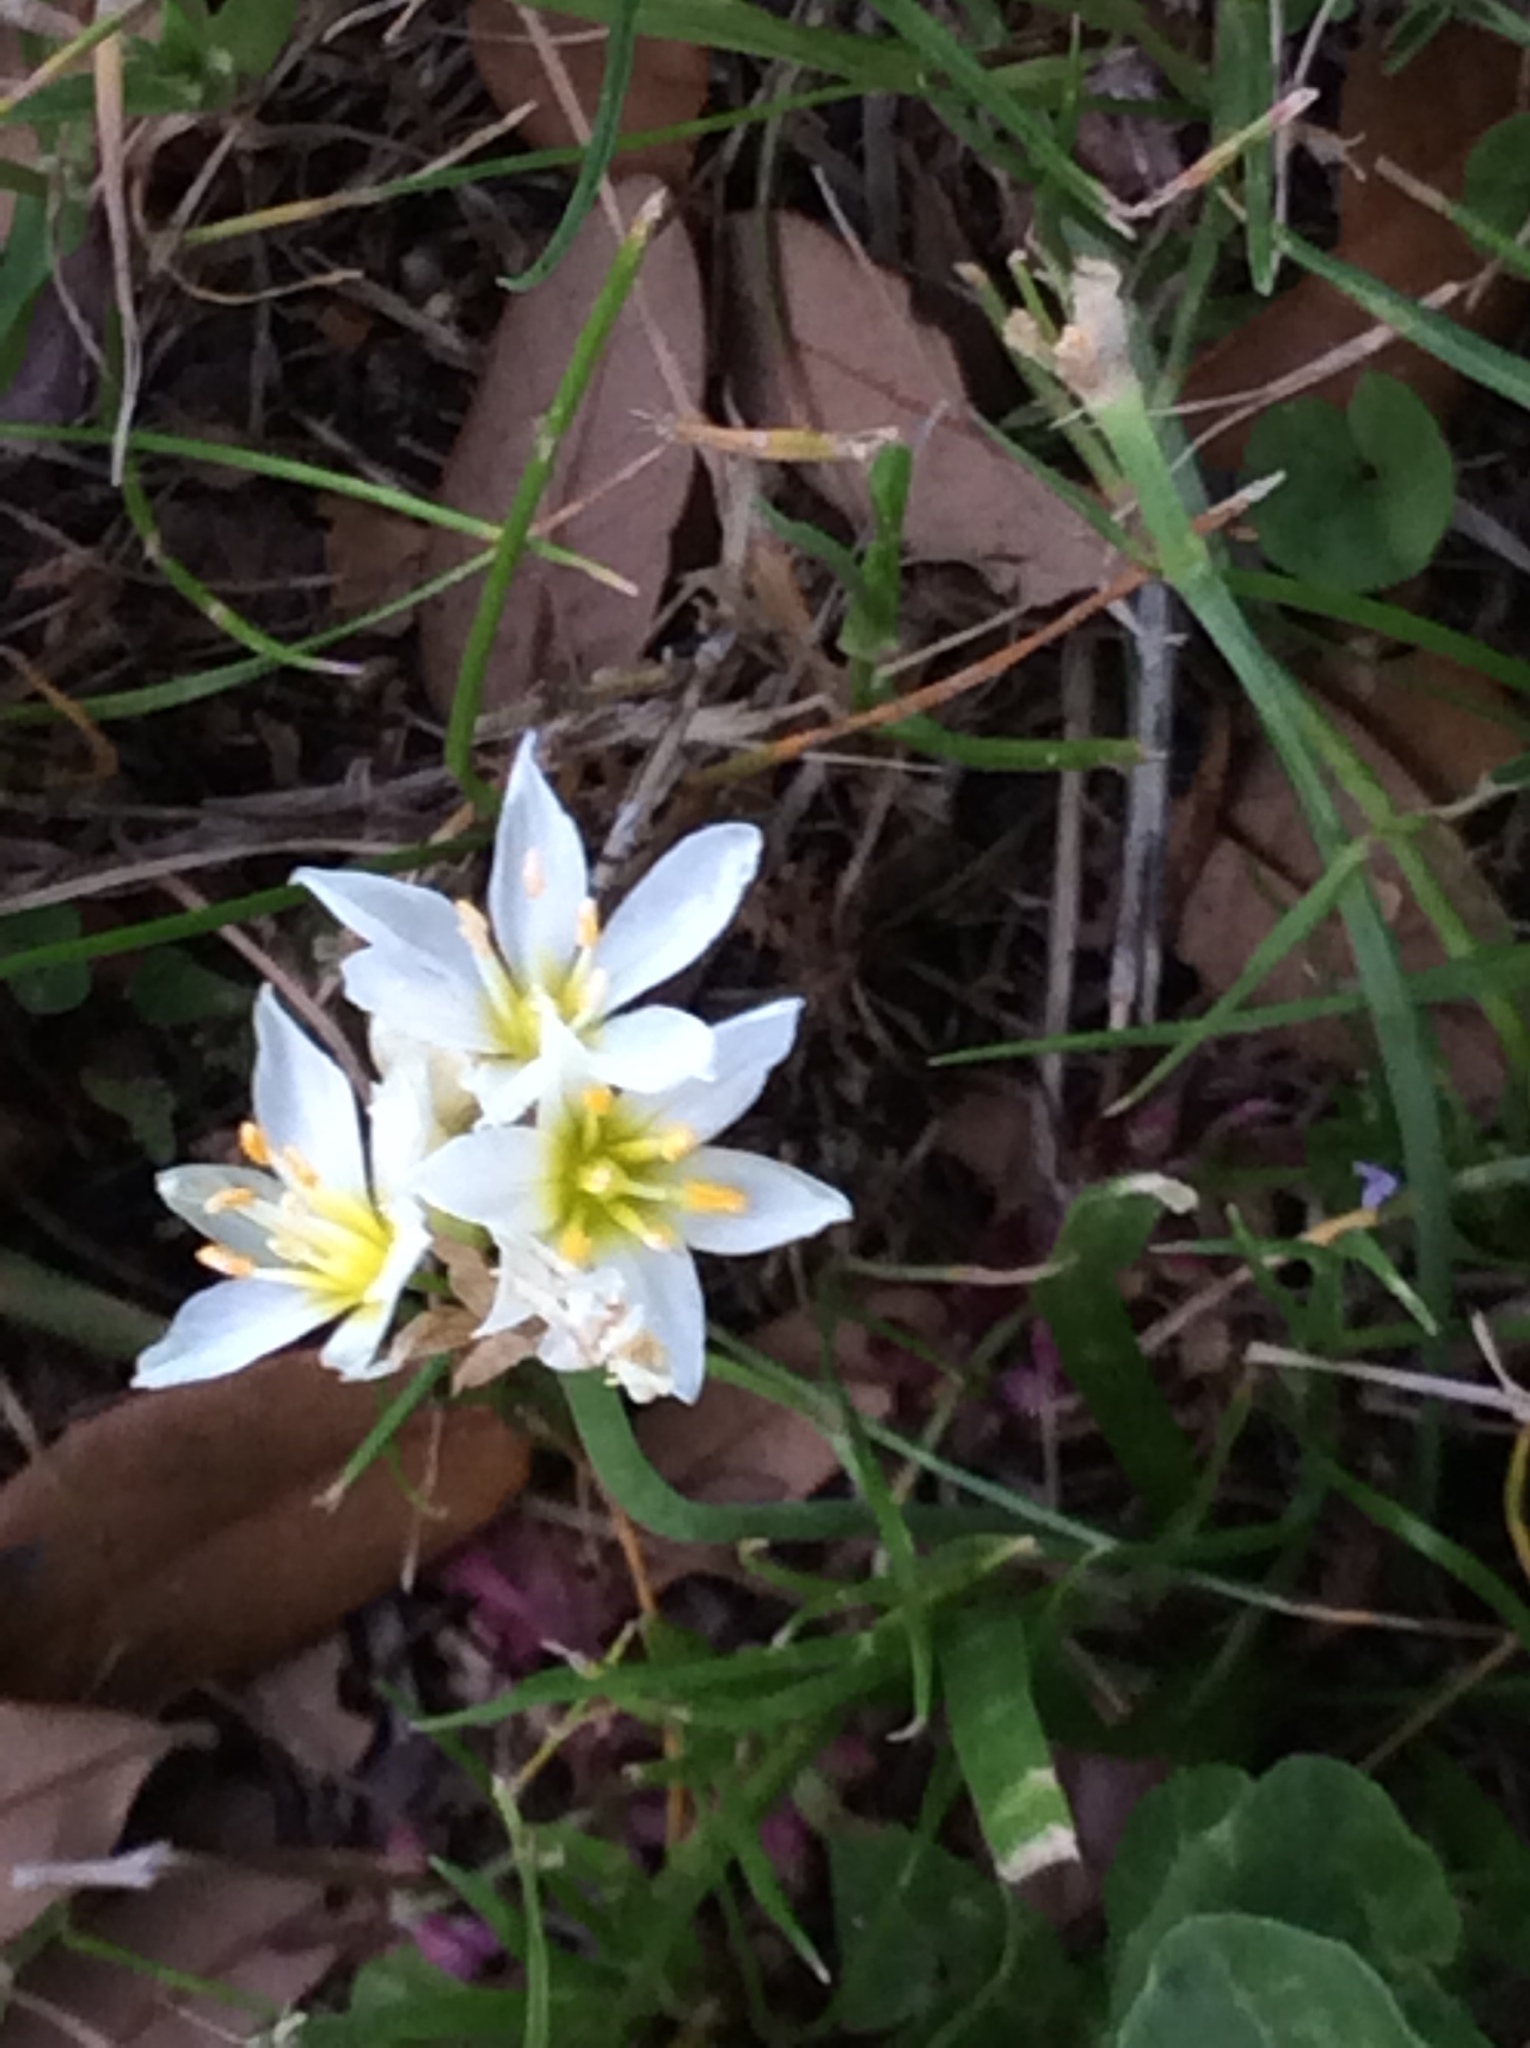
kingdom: Plantae
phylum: Tracheophyta
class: Liliopsida
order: Asparagales
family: Amaryllidaceae
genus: Nothoscordum
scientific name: Nothoscordum bivalve
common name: Crow-poison
